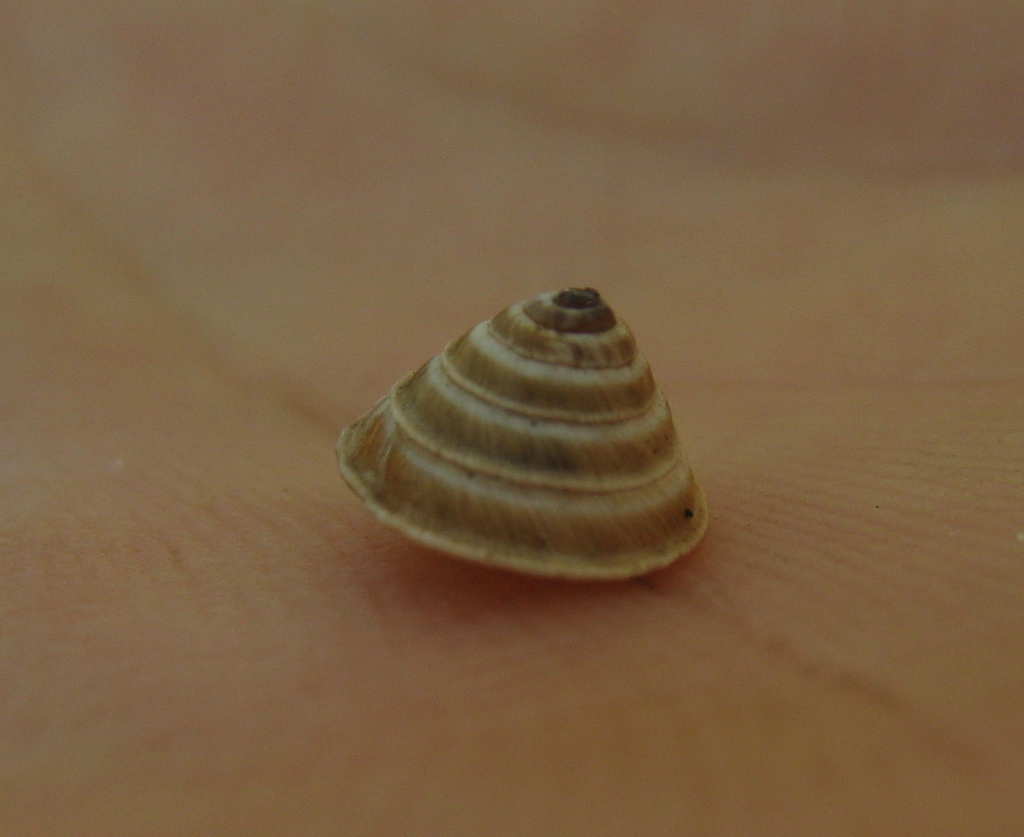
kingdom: Animalia
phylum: Mollusca
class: Gastropoda
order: Stylommatophora
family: Geomitridae
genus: Trochoidea
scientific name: Trochoidea elegans
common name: Elegant helicellid
